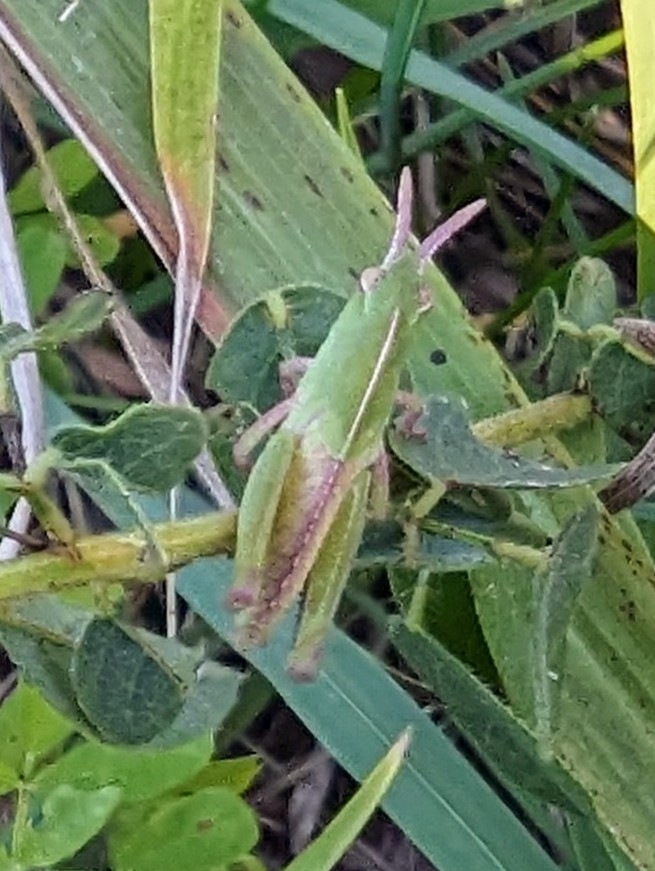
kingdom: Animalia
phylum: Arthropoda
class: Insecta
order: Orthoptera
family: Acrididae
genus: Chortophaga
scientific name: Chortophaga viridifasciata
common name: Green-striped grasshopper
